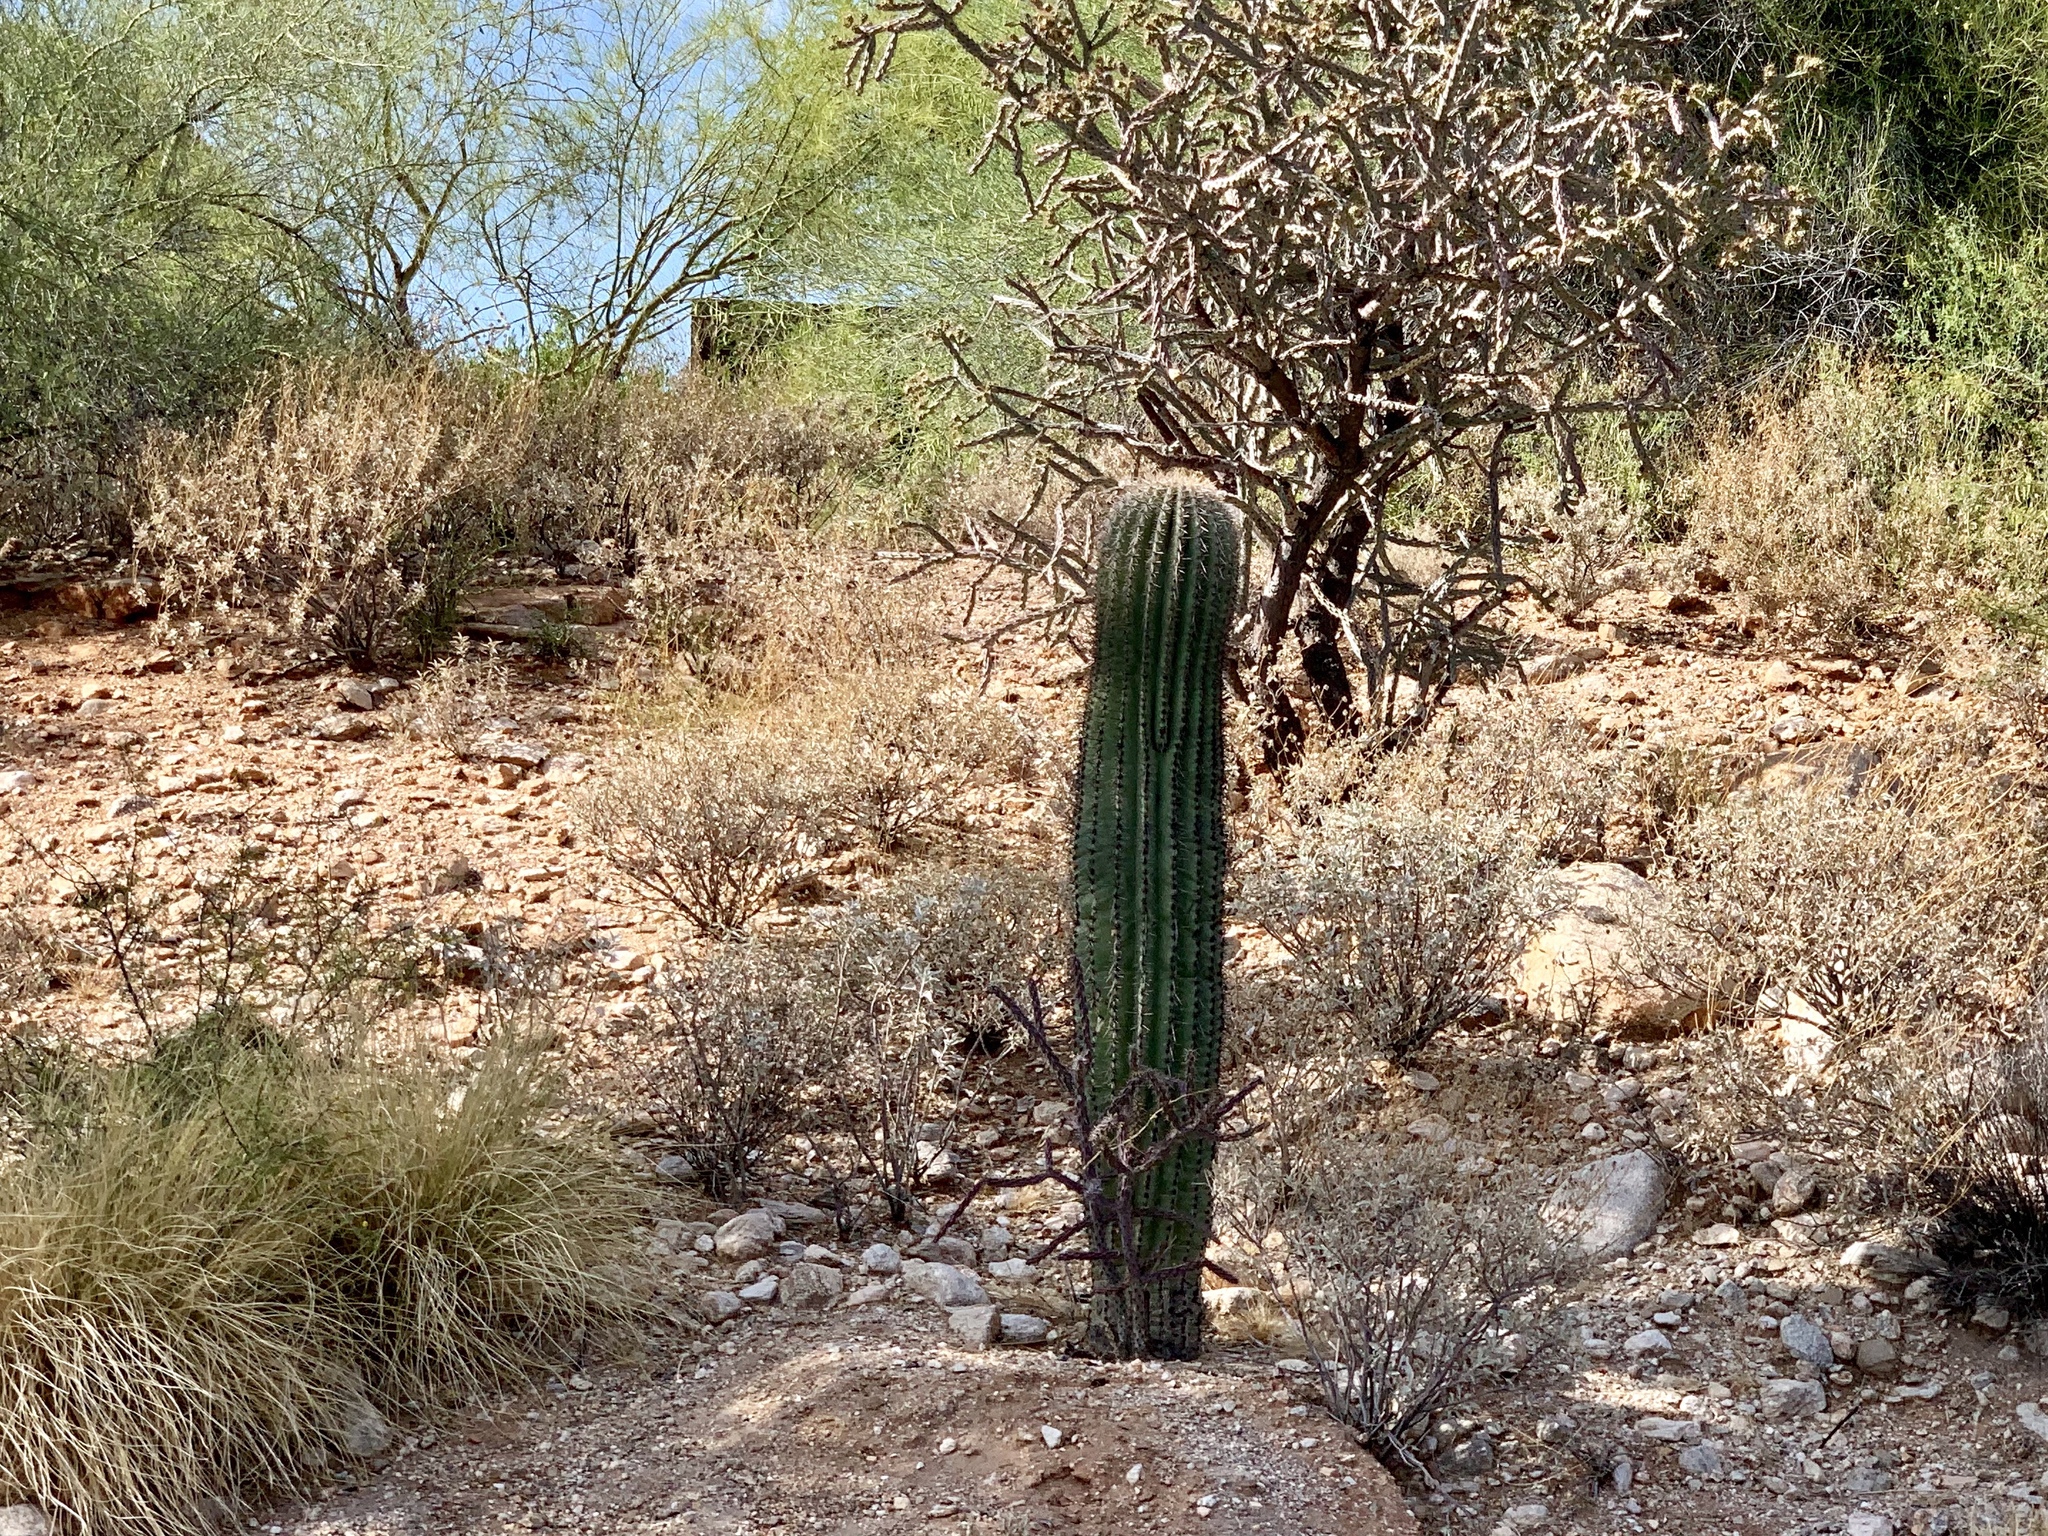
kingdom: Plantae
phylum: Tracheophyta
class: Magnoliopsida
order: Caryophyllales
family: Cactaceae
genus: Carnegiea
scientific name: Carnegiea gigantea
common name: Saguaro
